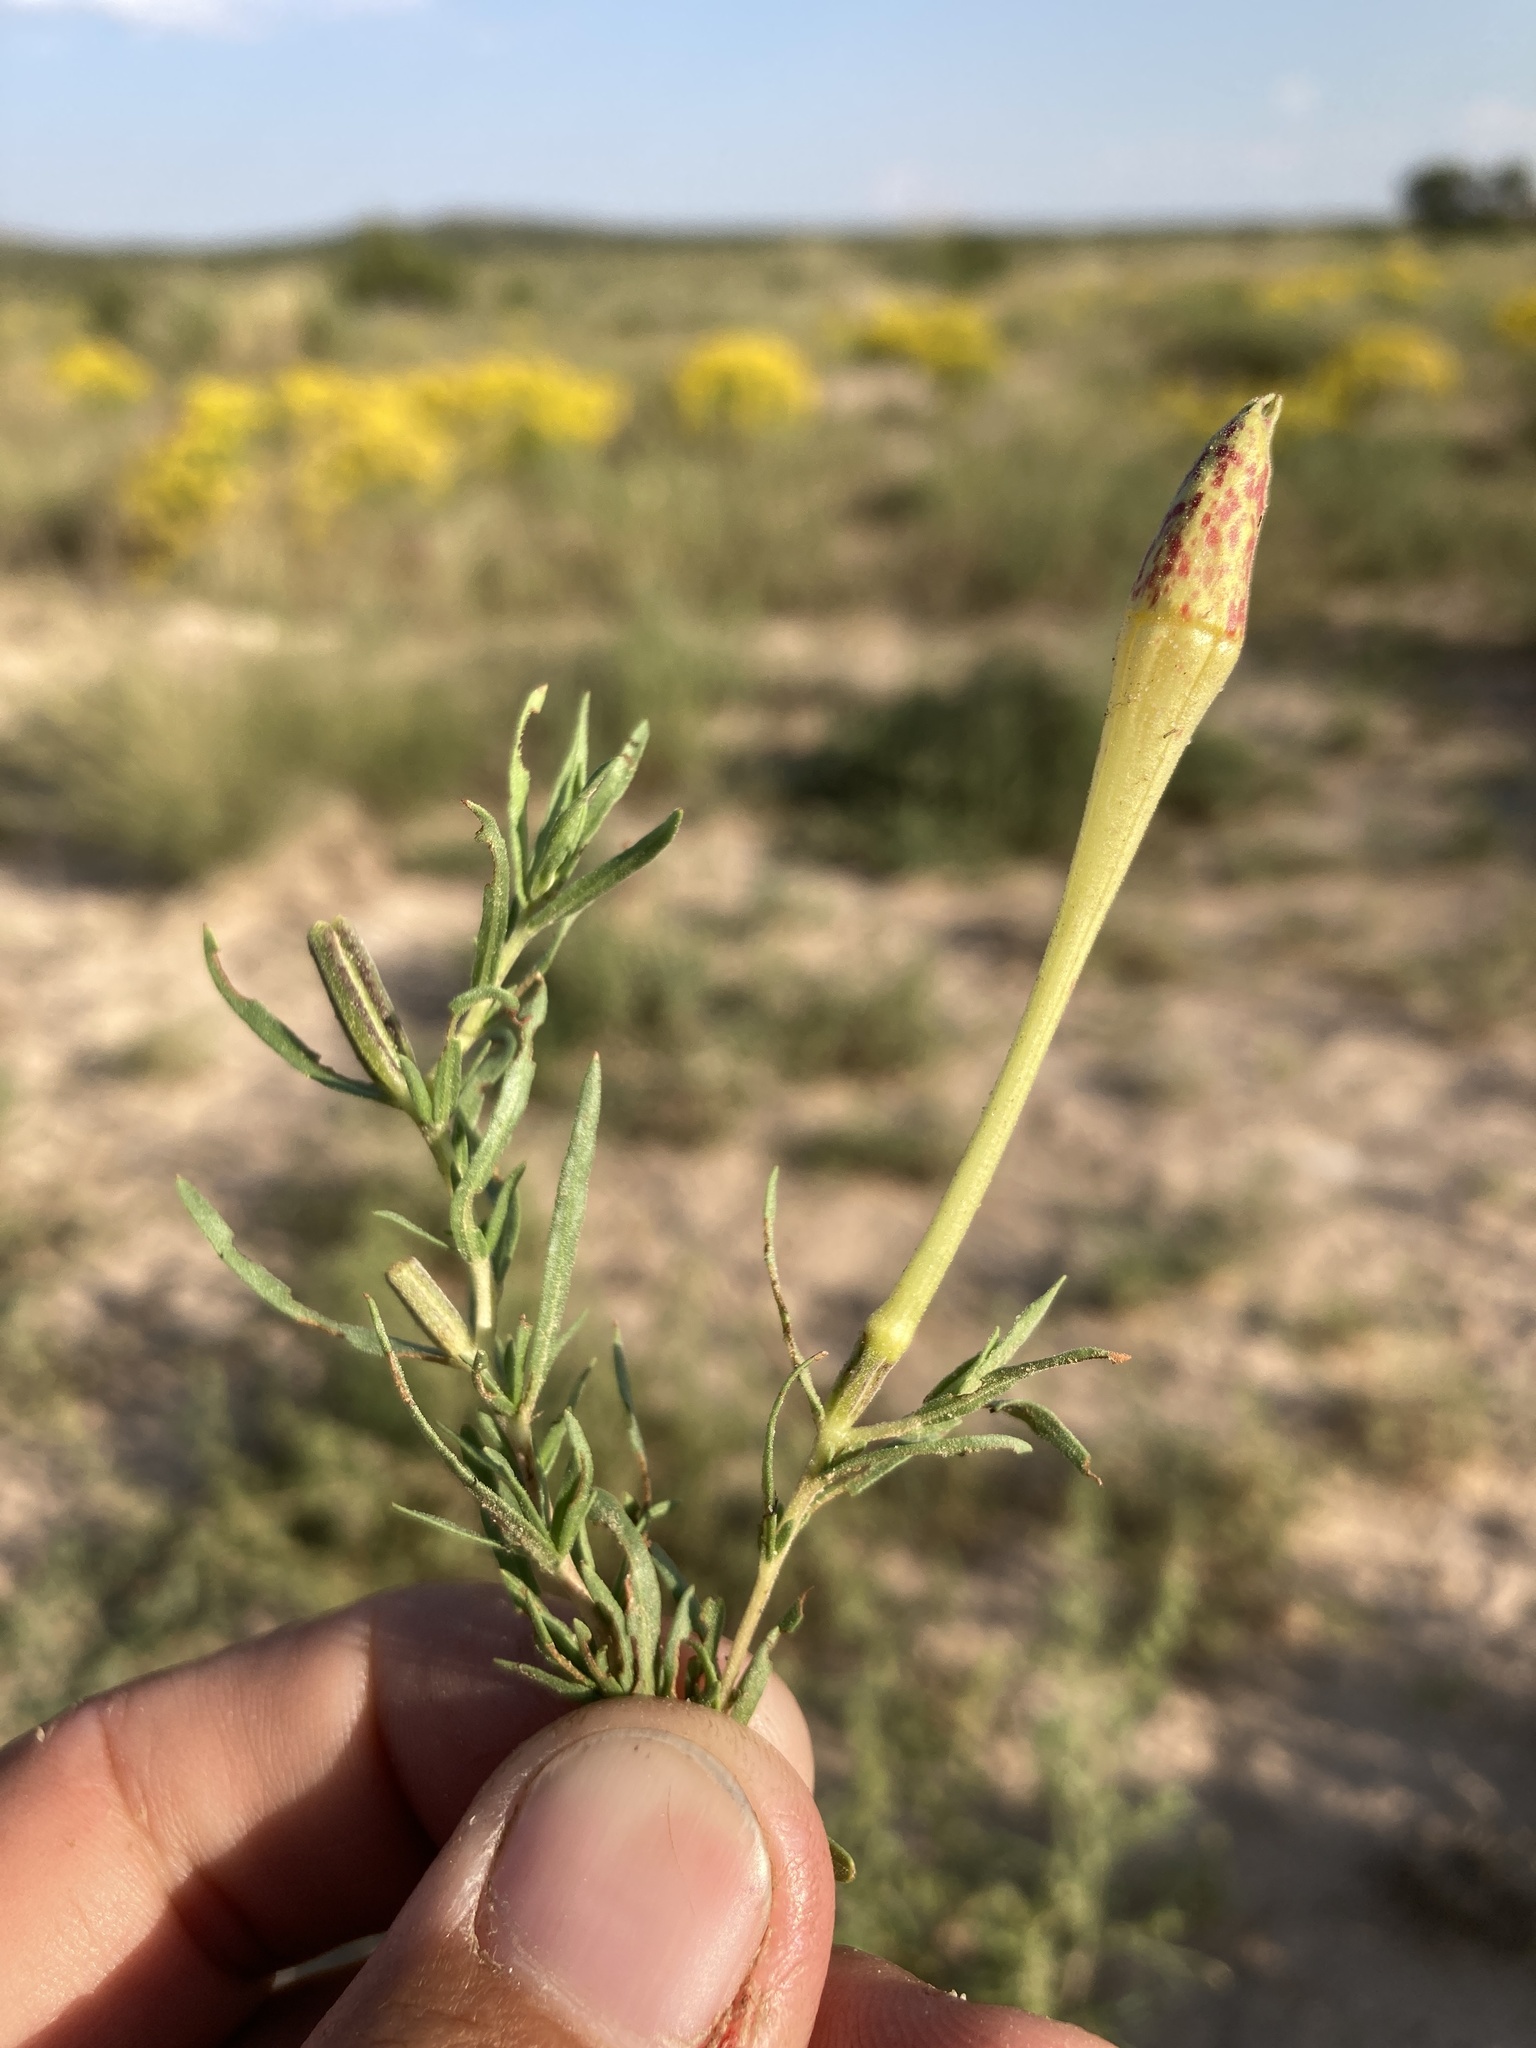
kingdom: Plantae
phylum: Tracheophyta
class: Magnoliopsida
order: Myrtales
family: Onagraceae
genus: Oenothera
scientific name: Oenothera hartwegii
